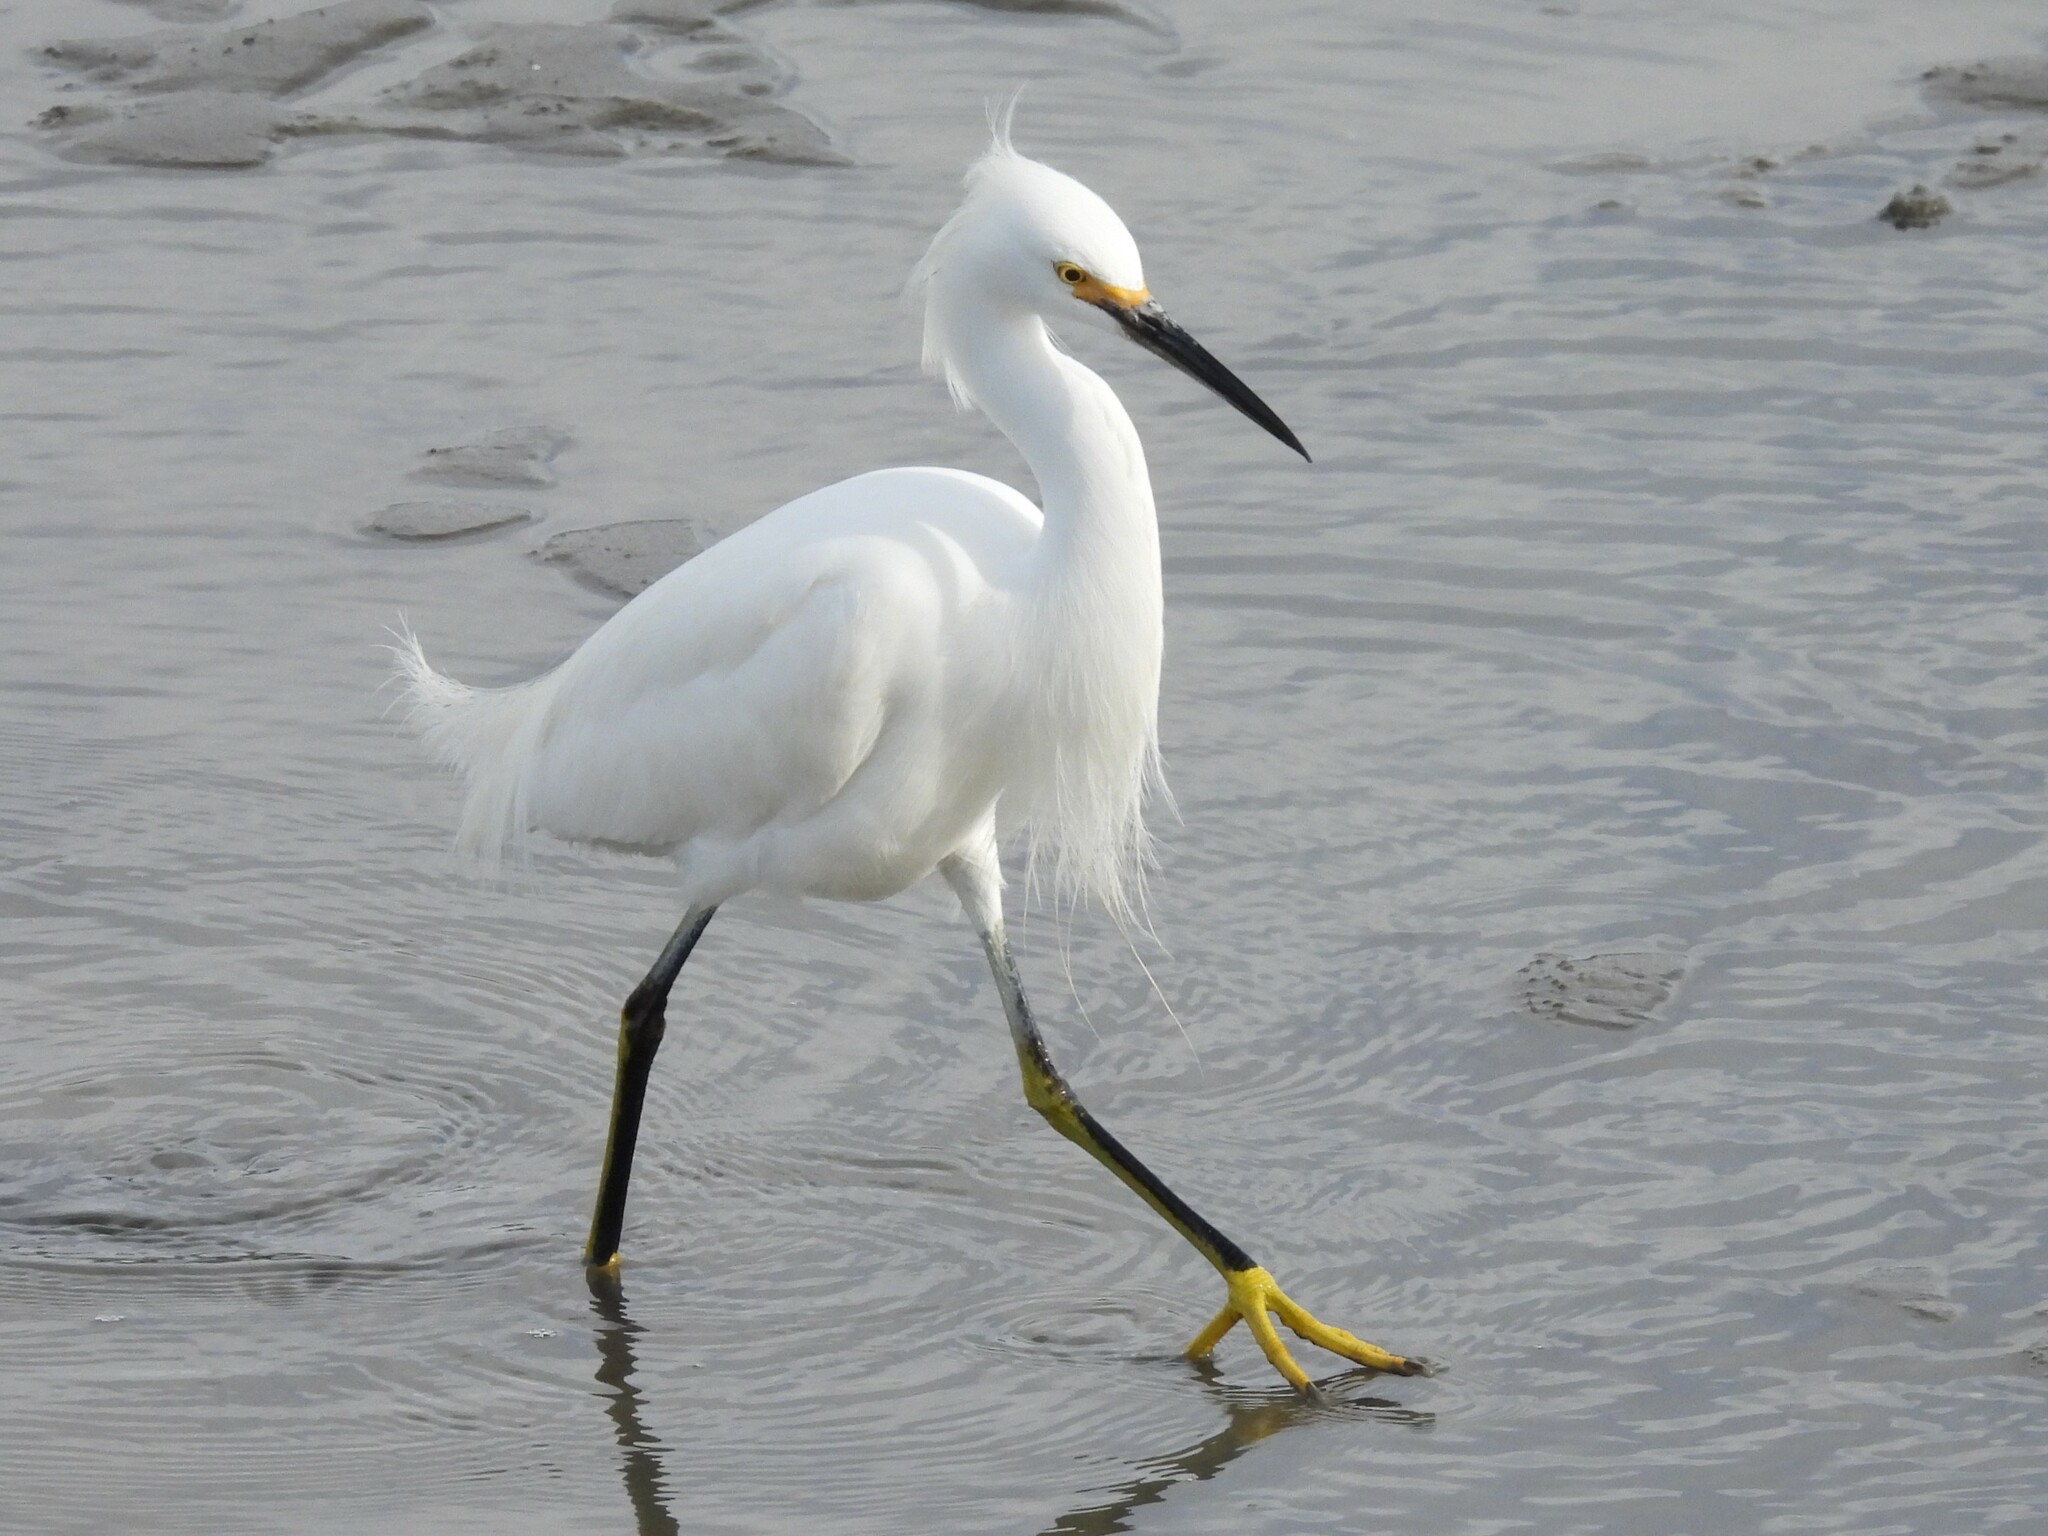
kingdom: Animalia
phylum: Chordata
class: Aves
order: Pelecaniformes
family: Ardeidae
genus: Egretta
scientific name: Egretta thula
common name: Snowy egret
